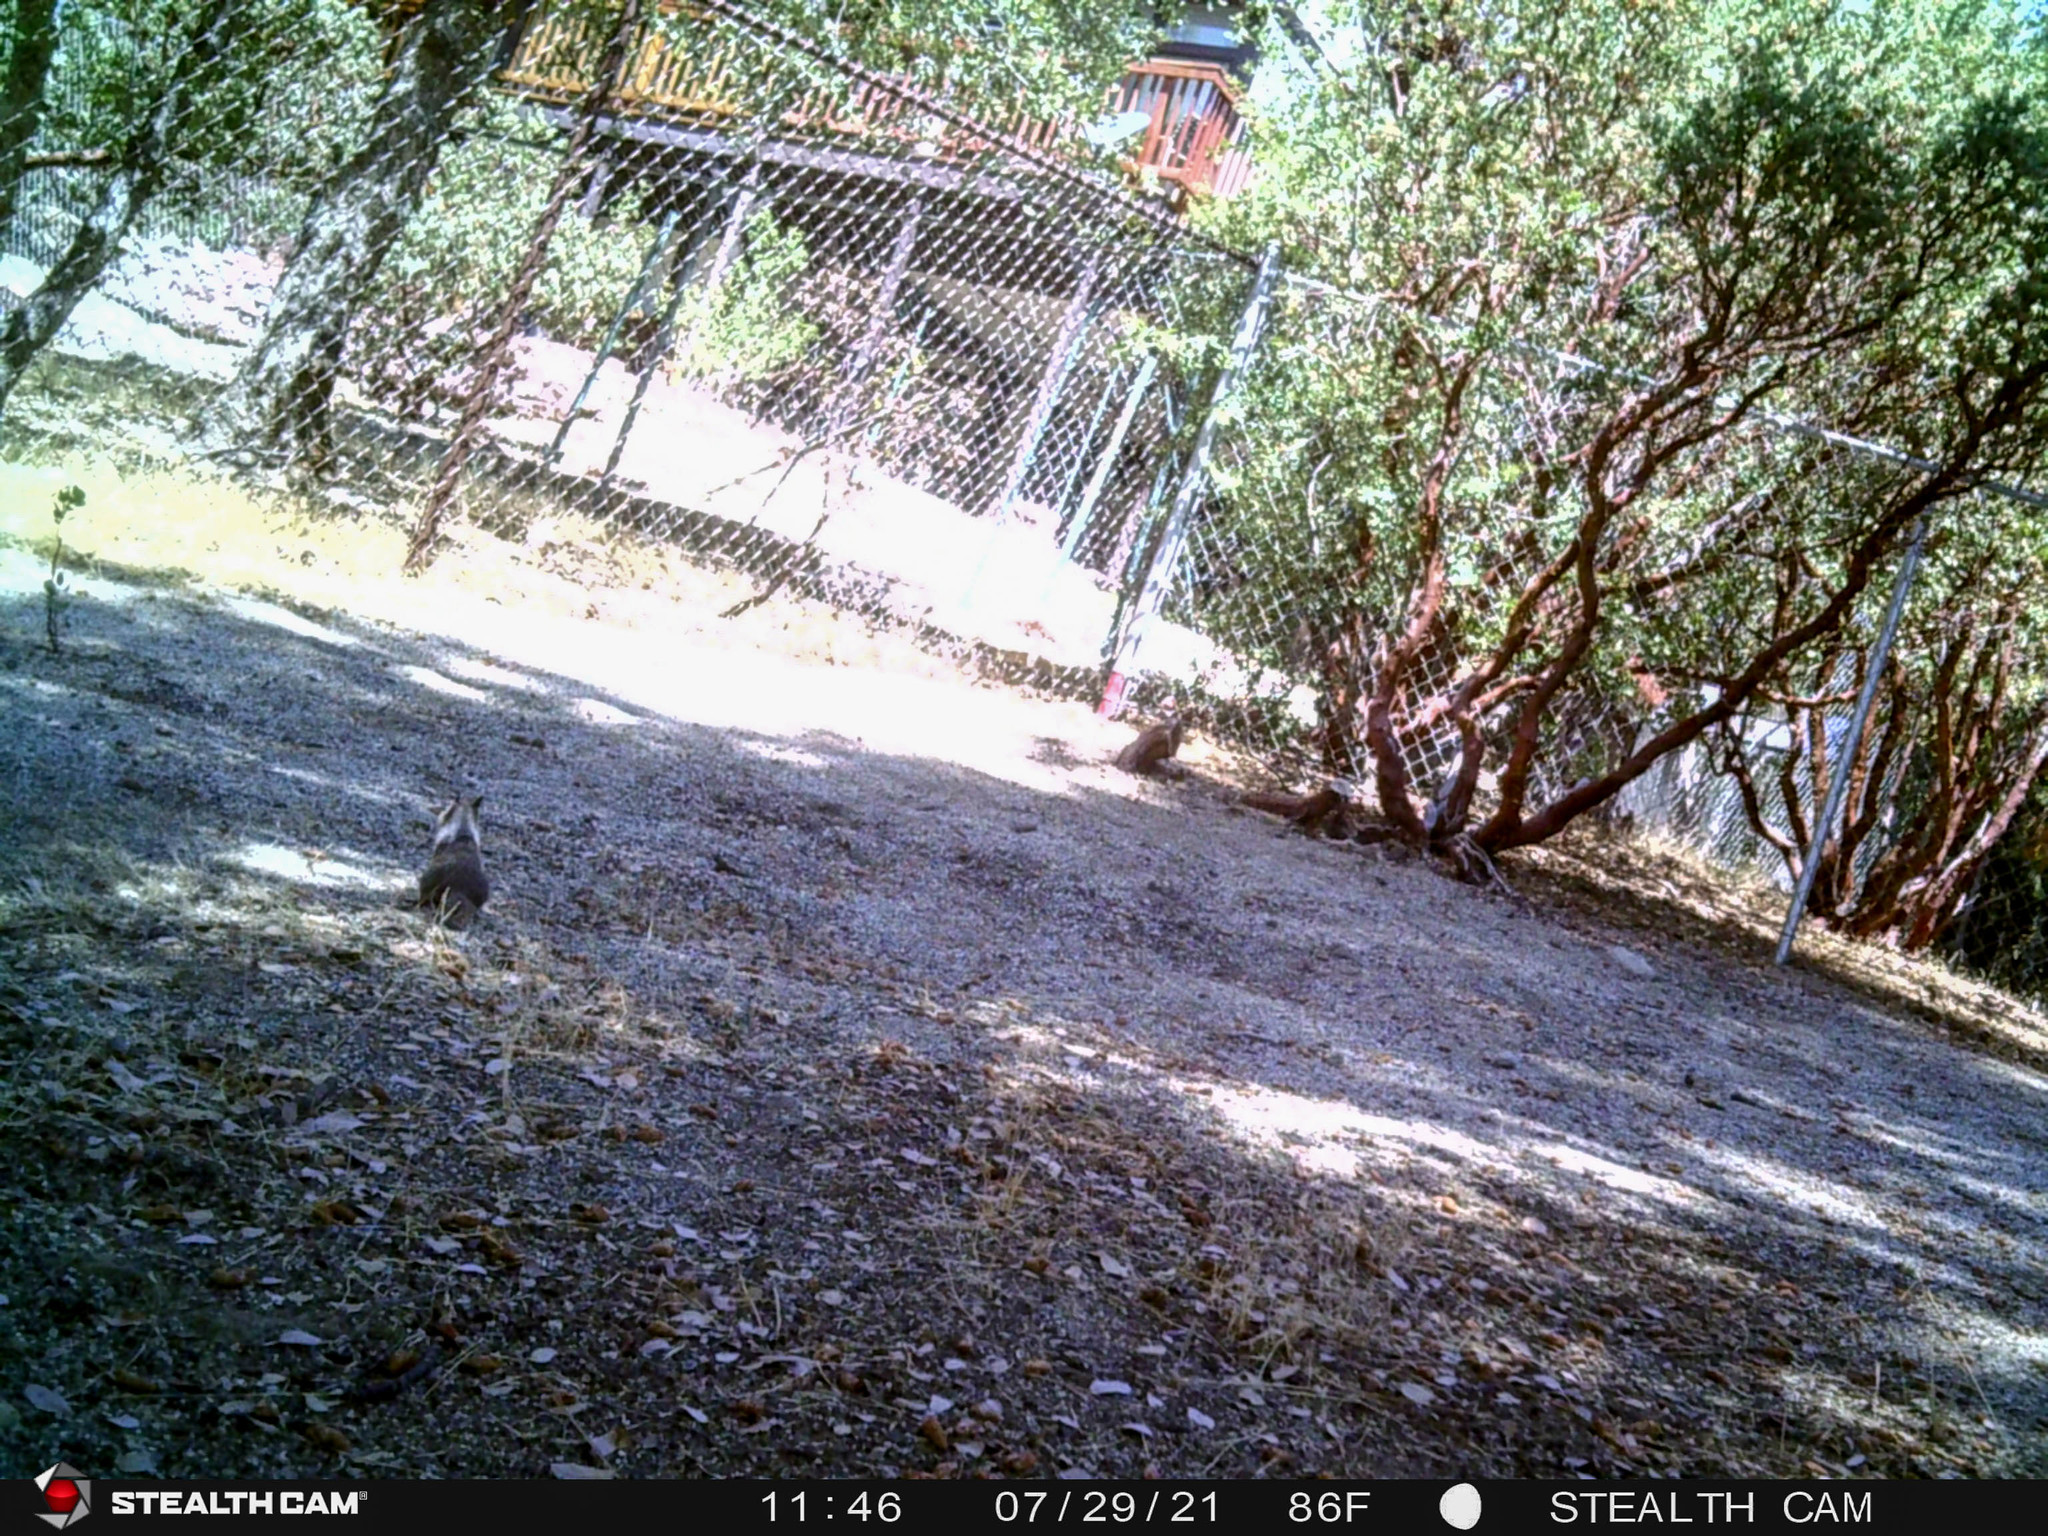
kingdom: Animalia
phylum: Chordata
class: Mammalia
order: Rodentia
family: Sciuridae
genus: Otospermophilus
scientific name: Otospermophilus beecheyi
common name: California ground squirrel
